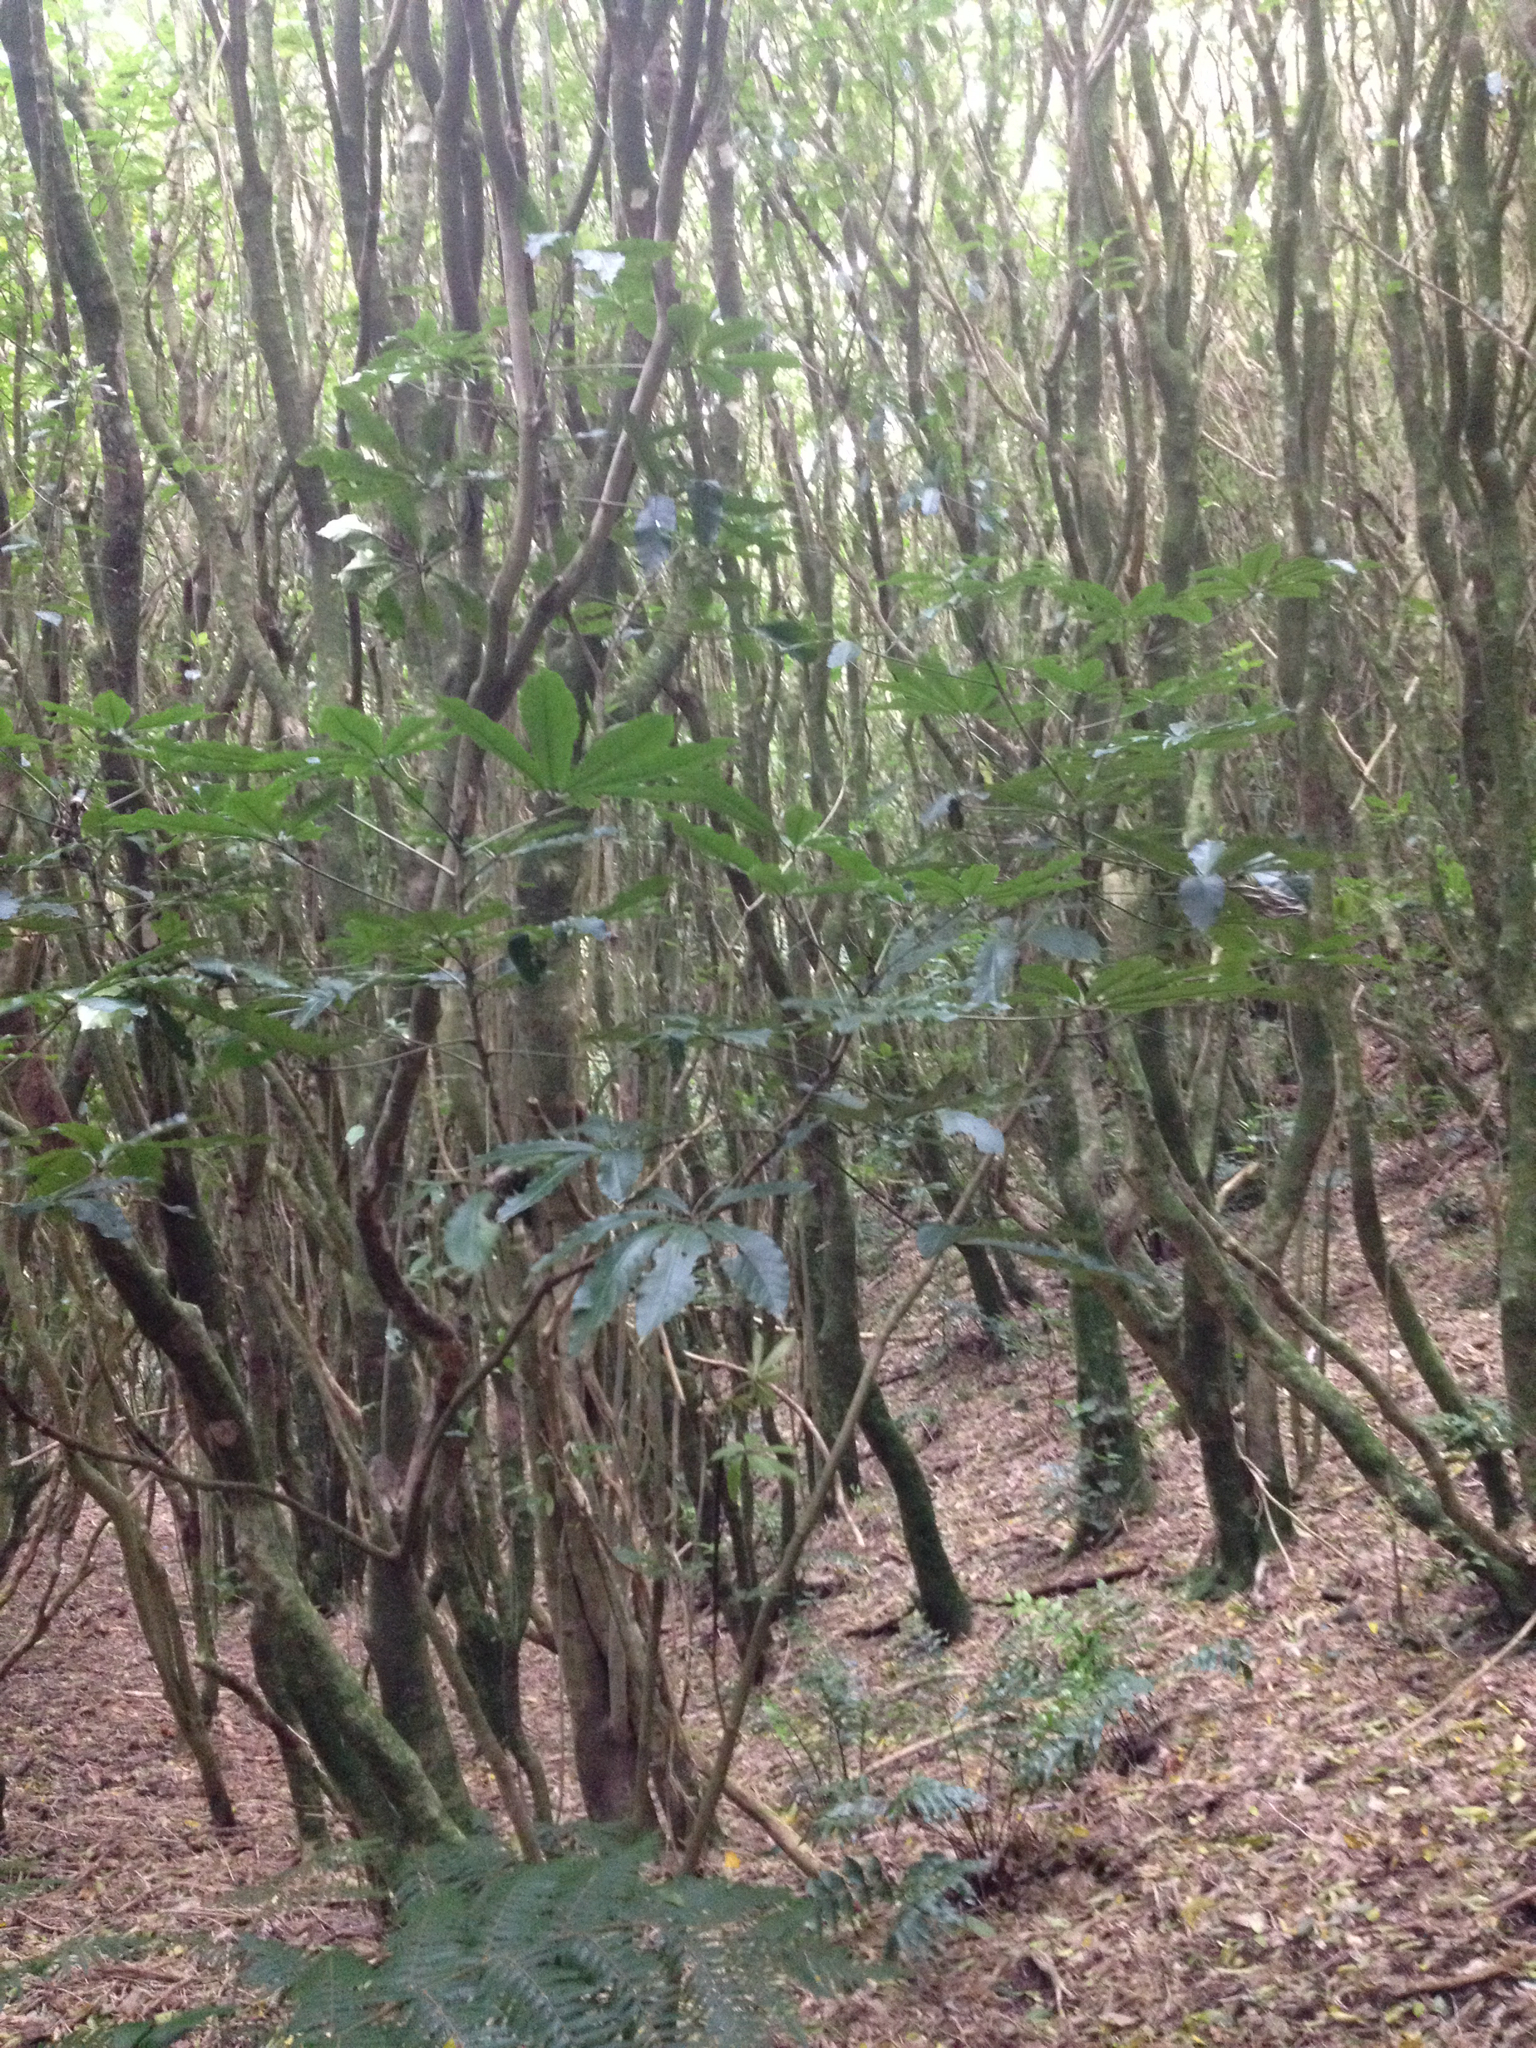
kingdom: Plantae
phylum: Tracheophyta
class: Magnoliopsida
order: Apiales
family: Araliaceae
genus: Schefflera
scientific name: Schefflera digitata
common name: Pate
